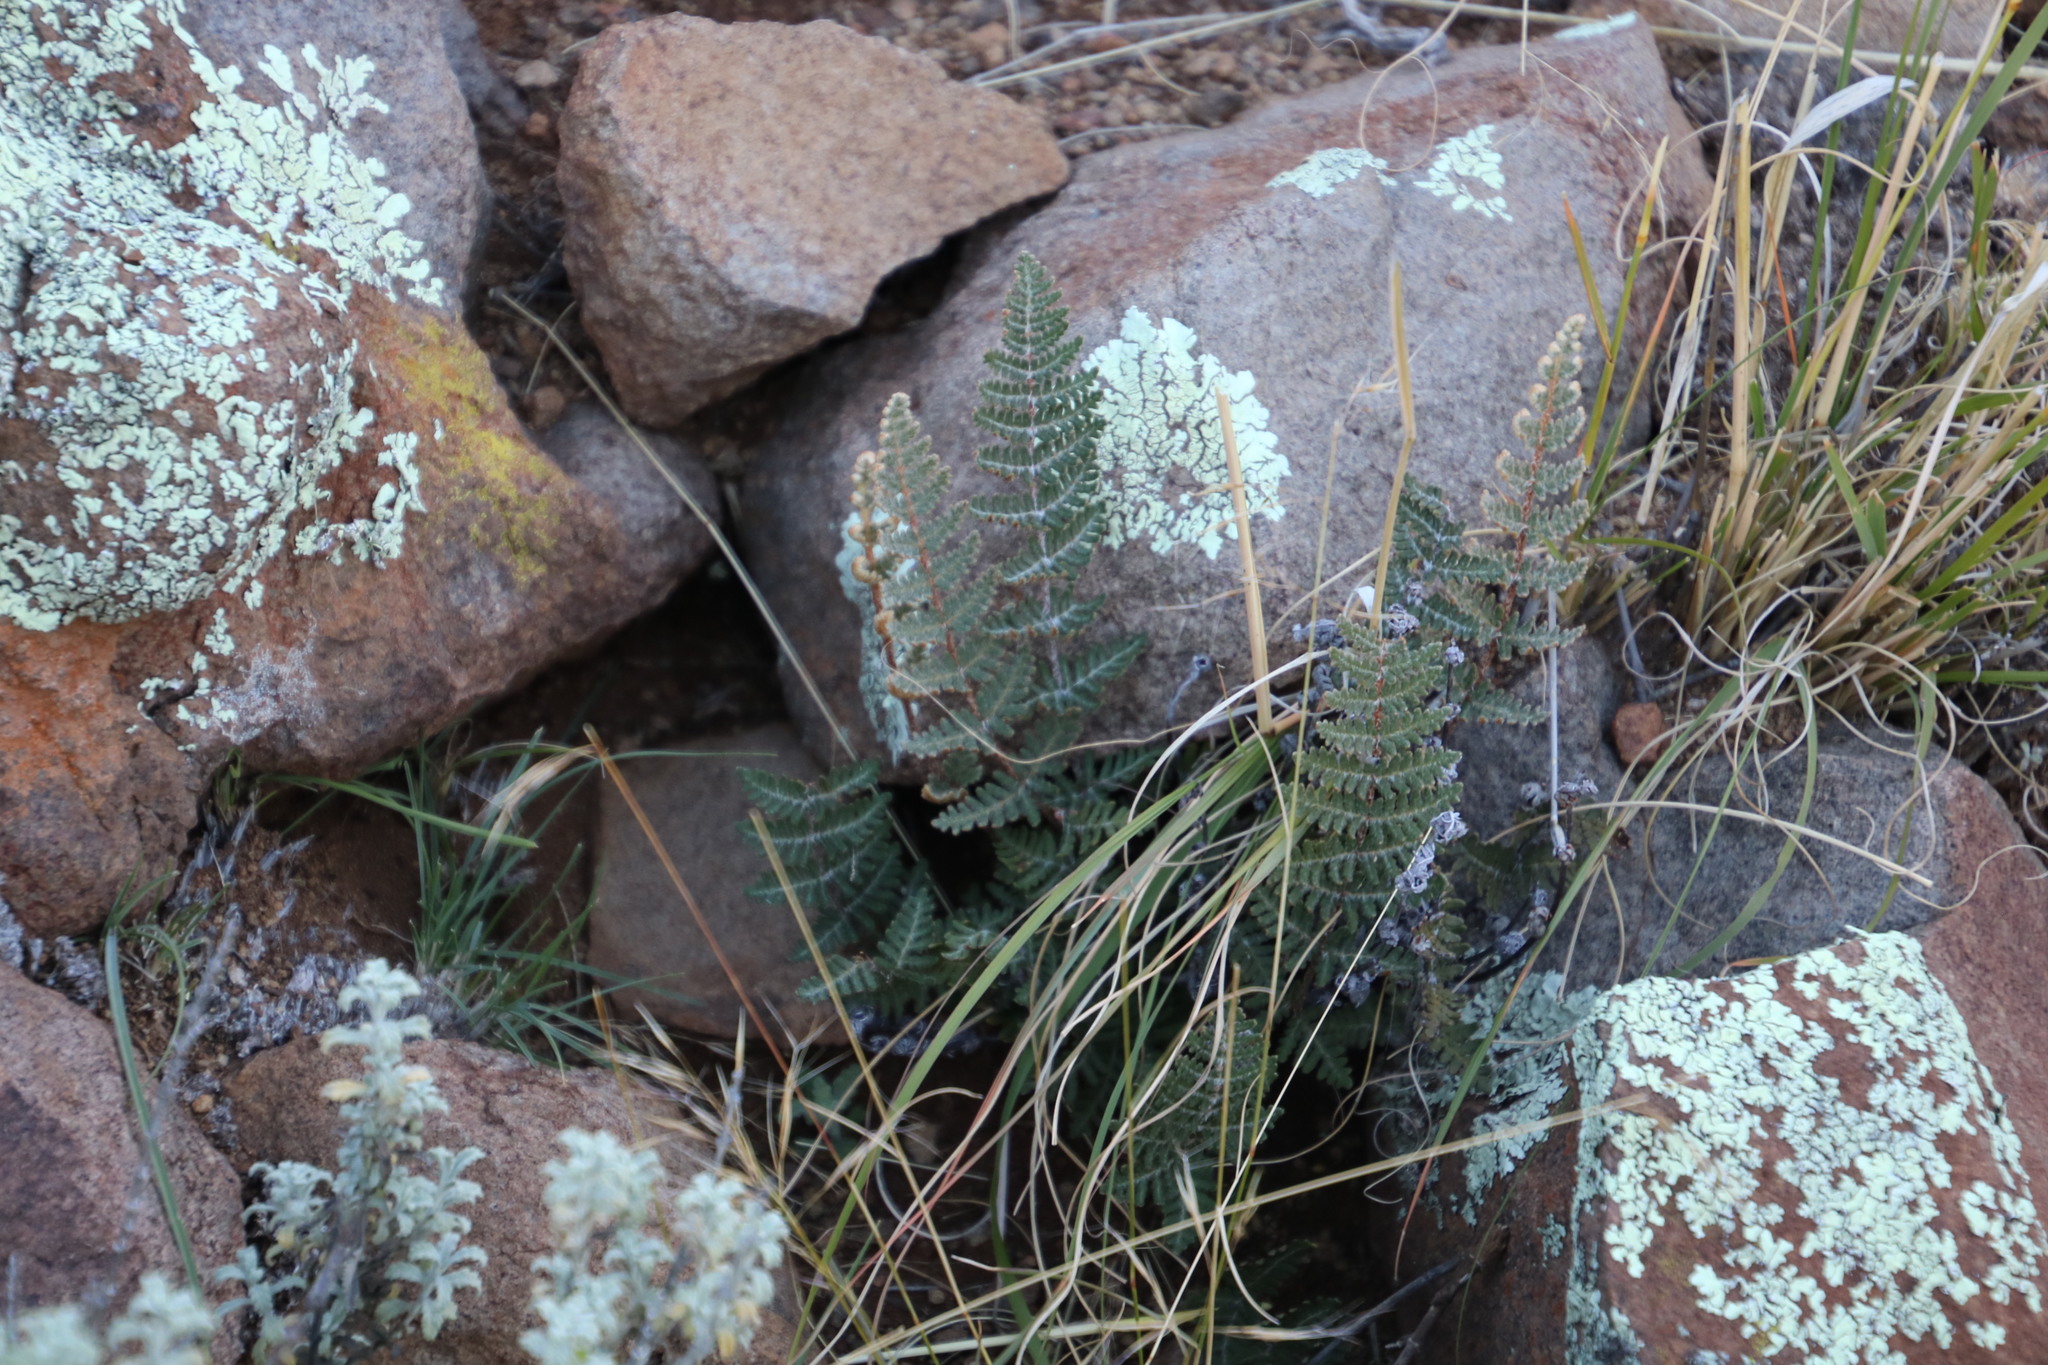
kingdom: Plantae
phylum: Tracheophyta
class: Polypodiopsida
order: Polypodiales
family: Pteridaceae
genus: Cheilanthes
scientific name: Cheilanthes eckloniana
